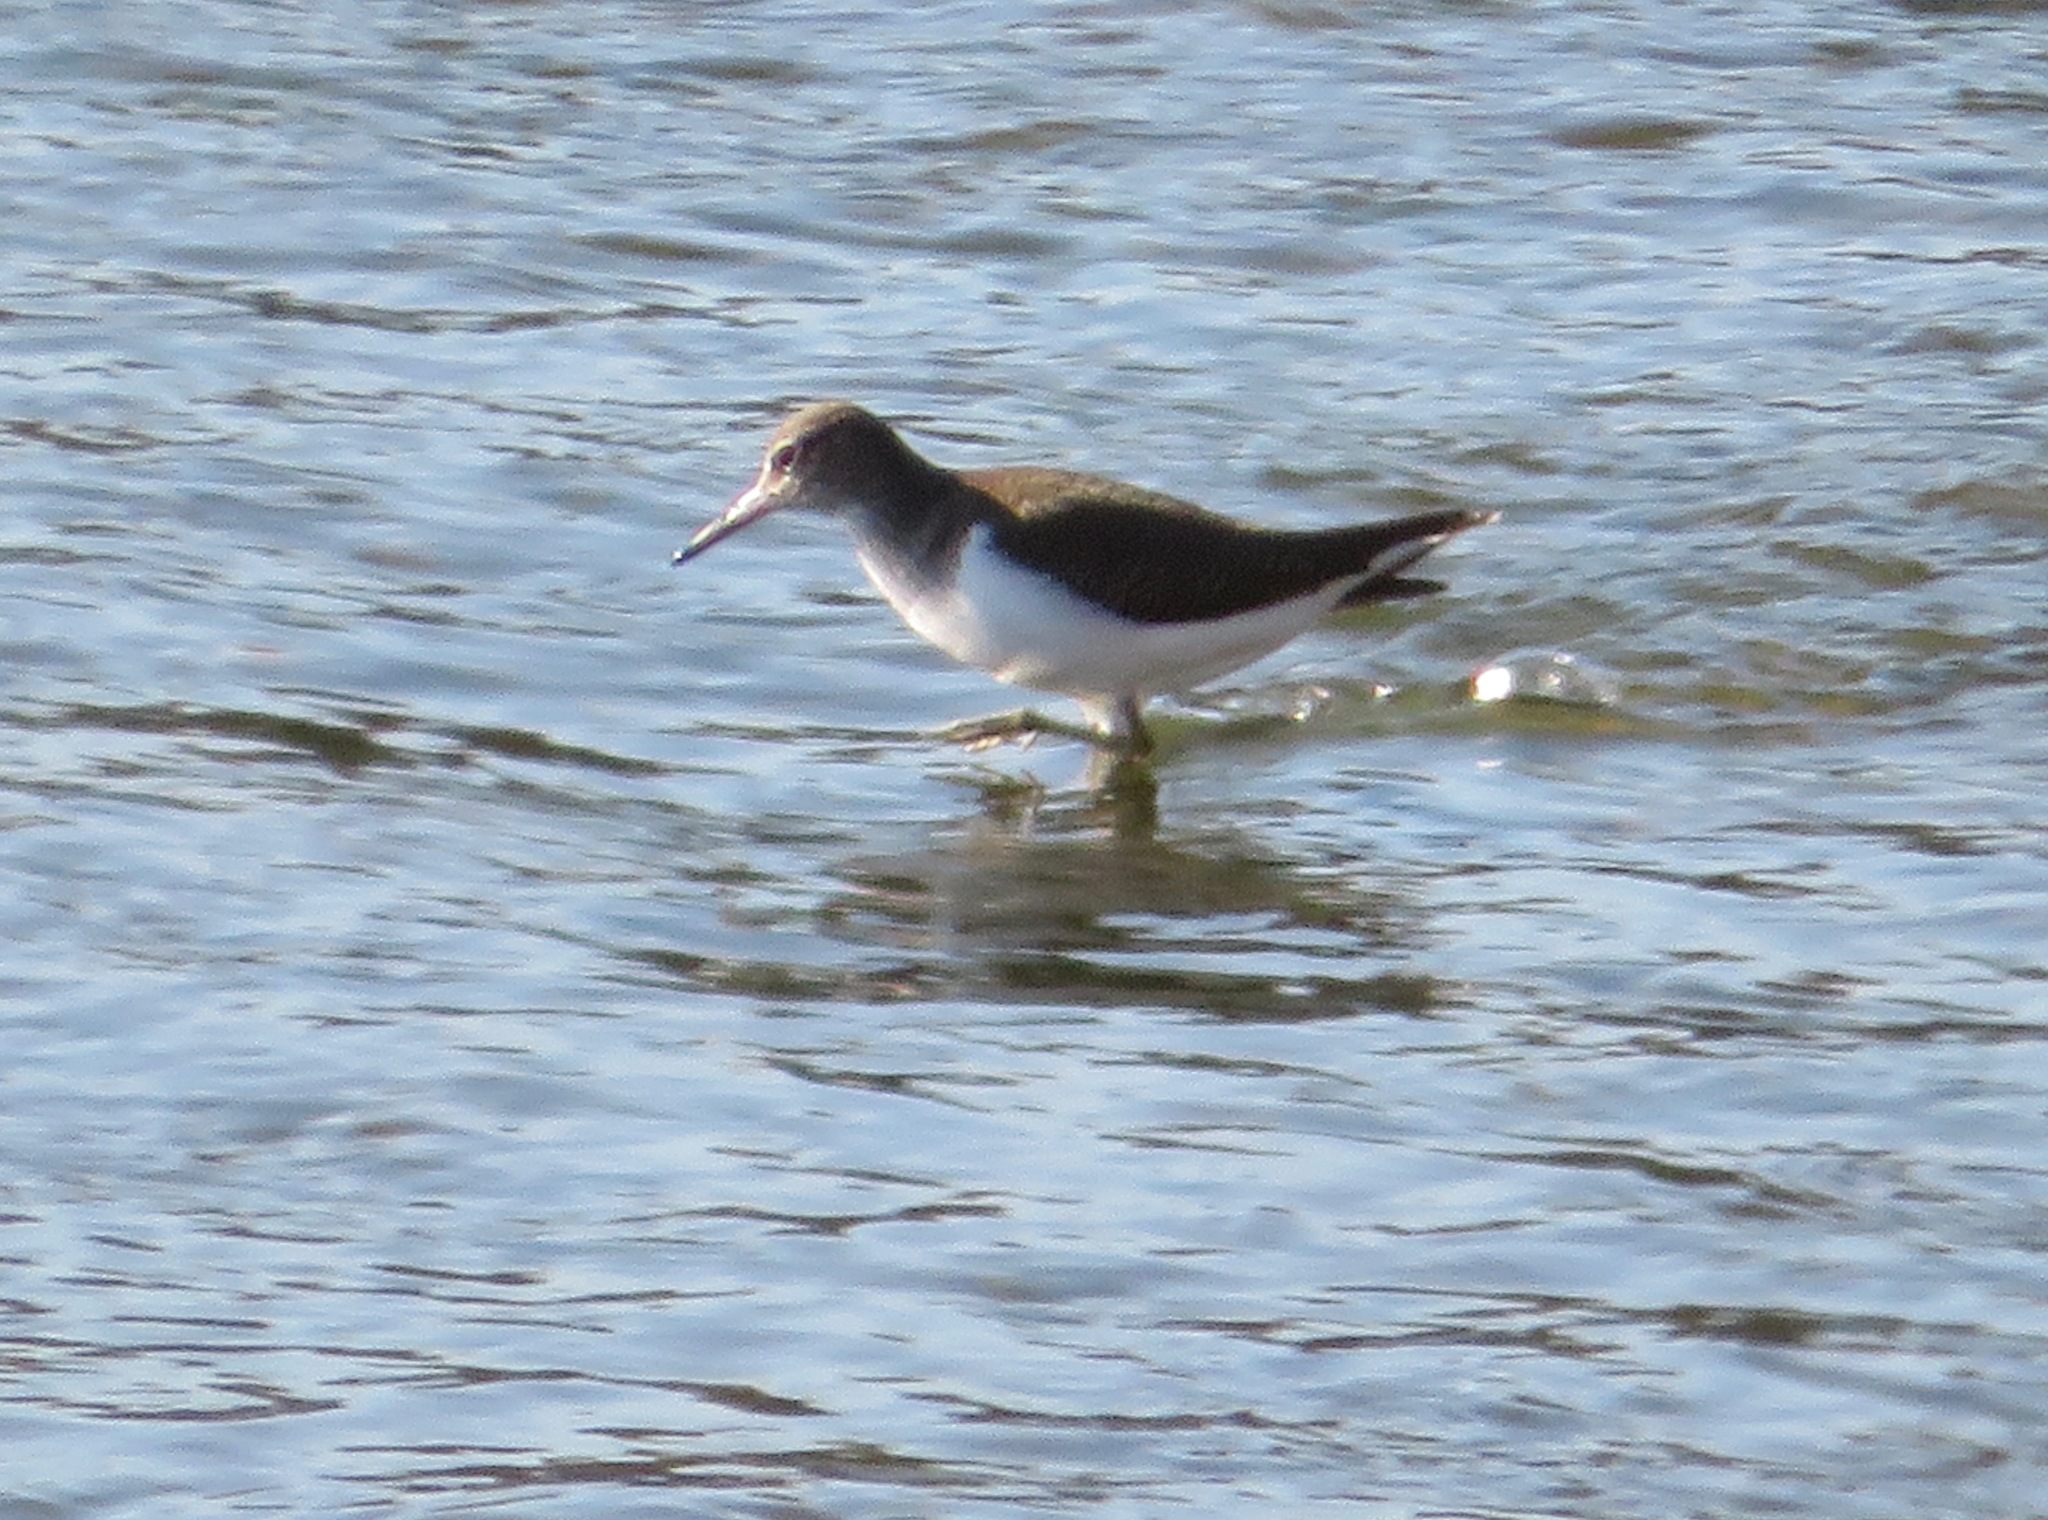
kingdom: Animalia
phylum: Chordata
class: Aves
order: Charadriiformes
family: Scolopacidae
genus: Actitis
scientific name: Actitis hypoleucos
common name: Common sandpiper
